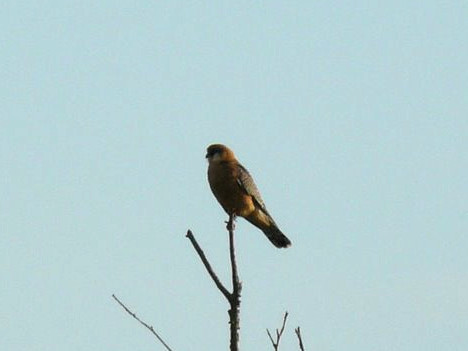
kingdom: Animalia
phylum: Chordata
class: Aves
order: Falconiformes
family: Falconidae
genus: Falco
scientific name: Falco vespertinus
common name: Red-footed falcon
